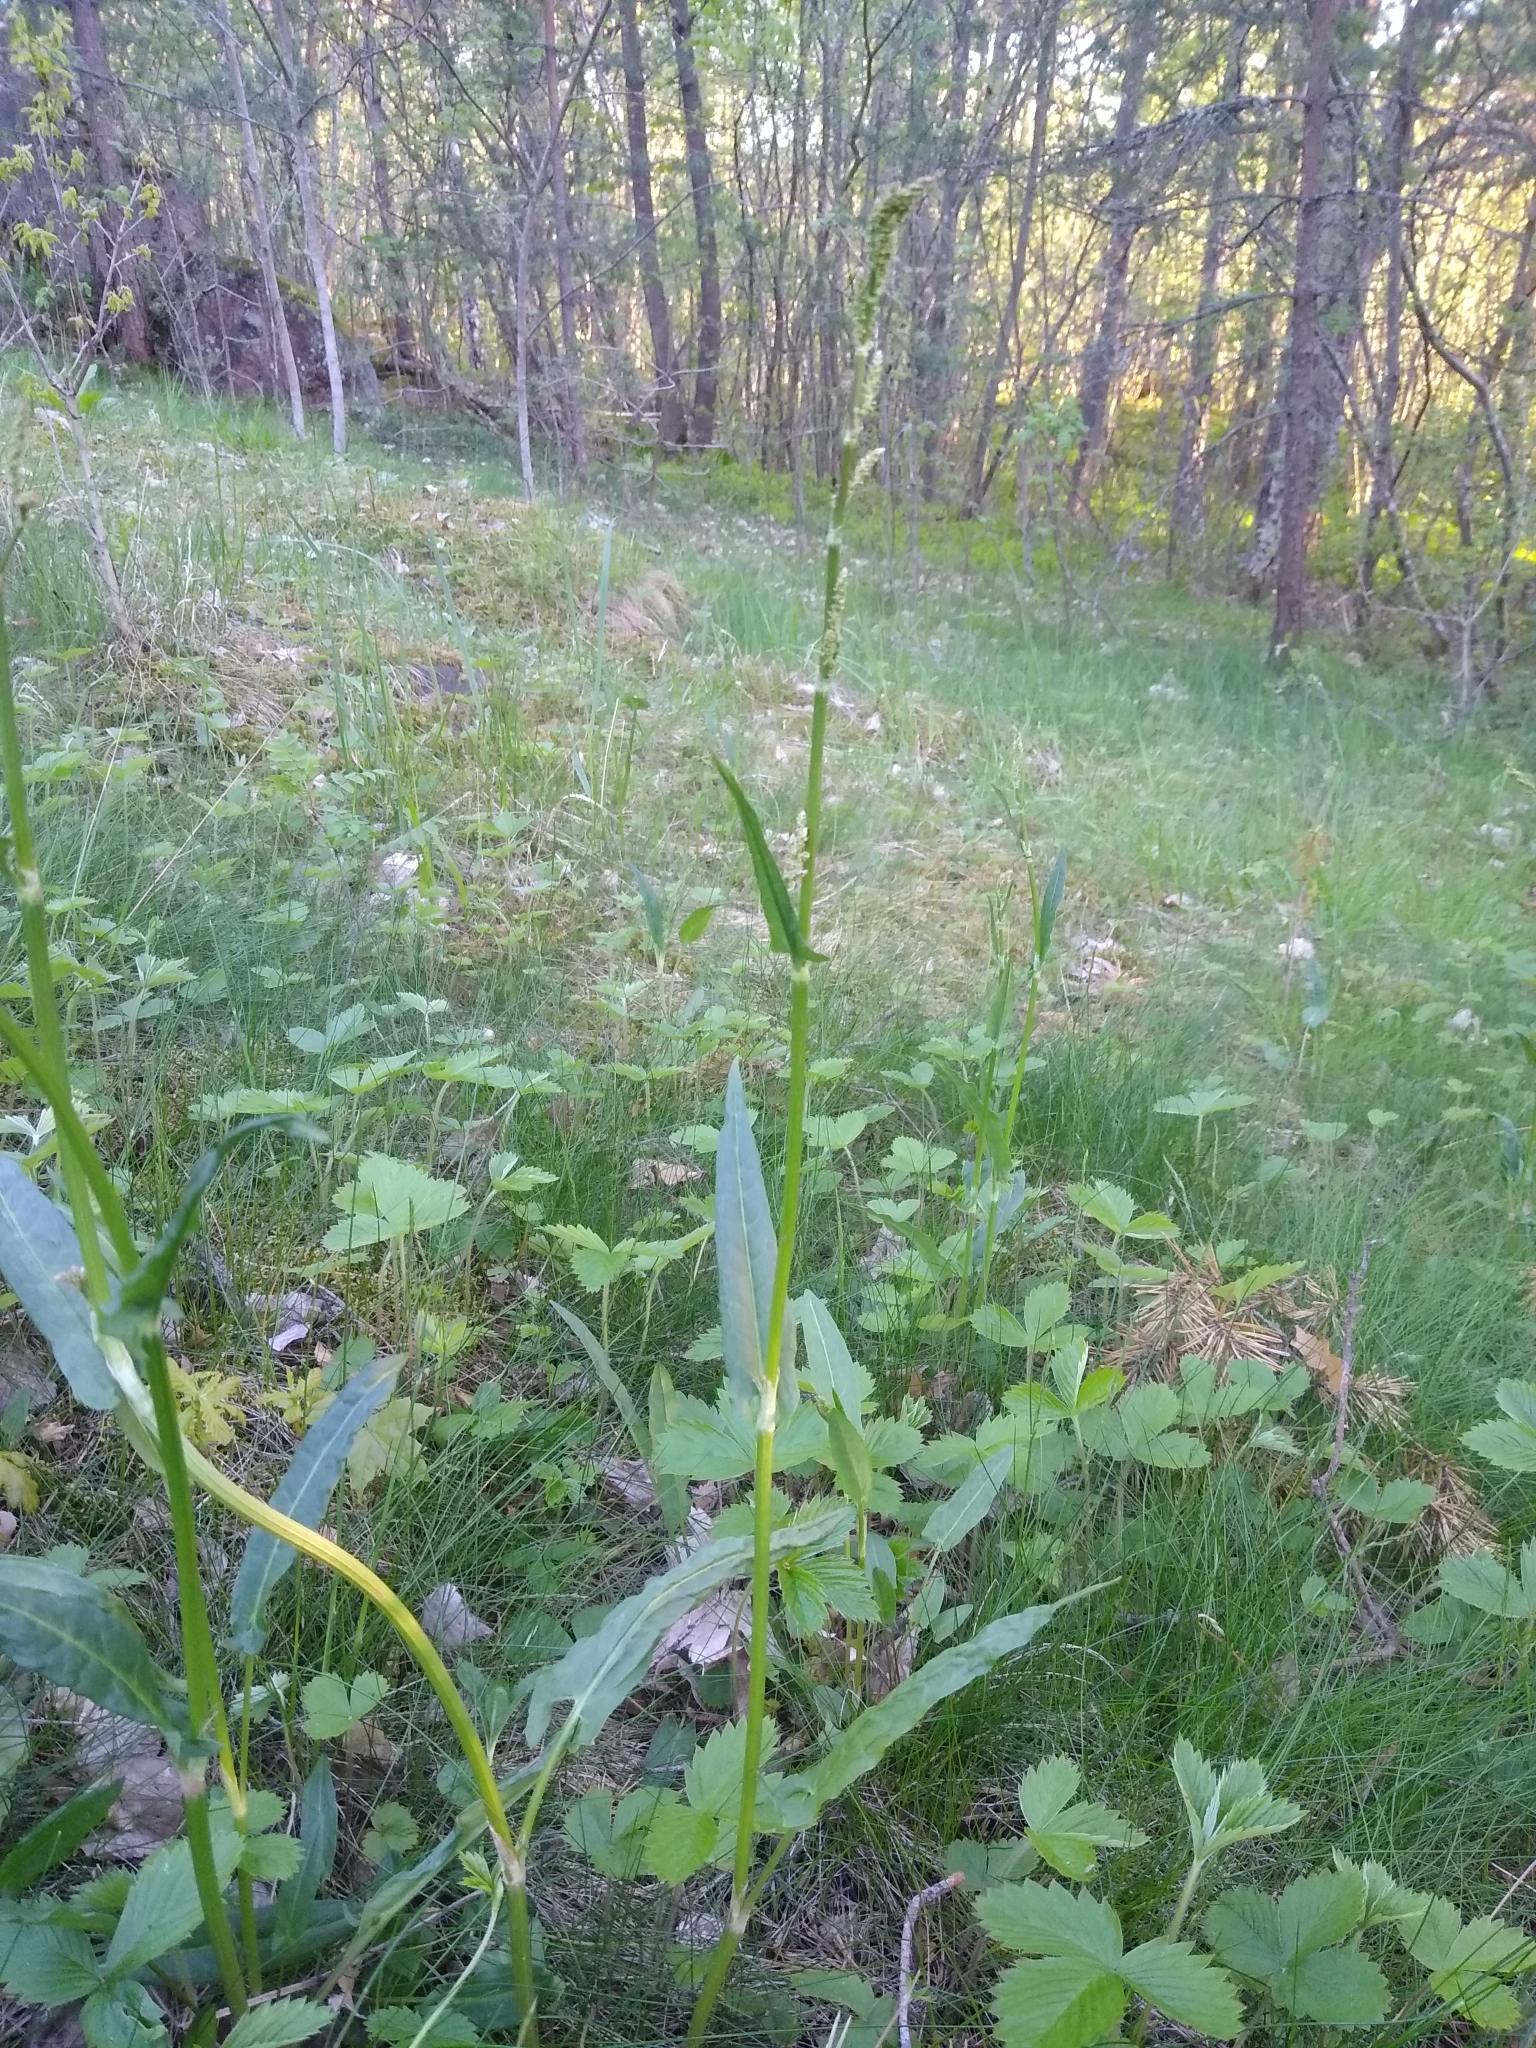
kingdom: Plantae
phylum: Tracheophyta
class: Magnoliopsida
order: Caryophyllales
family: Polygonaceae
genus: Rumex
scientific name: Rumex acetosa
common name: Garden sorrel
